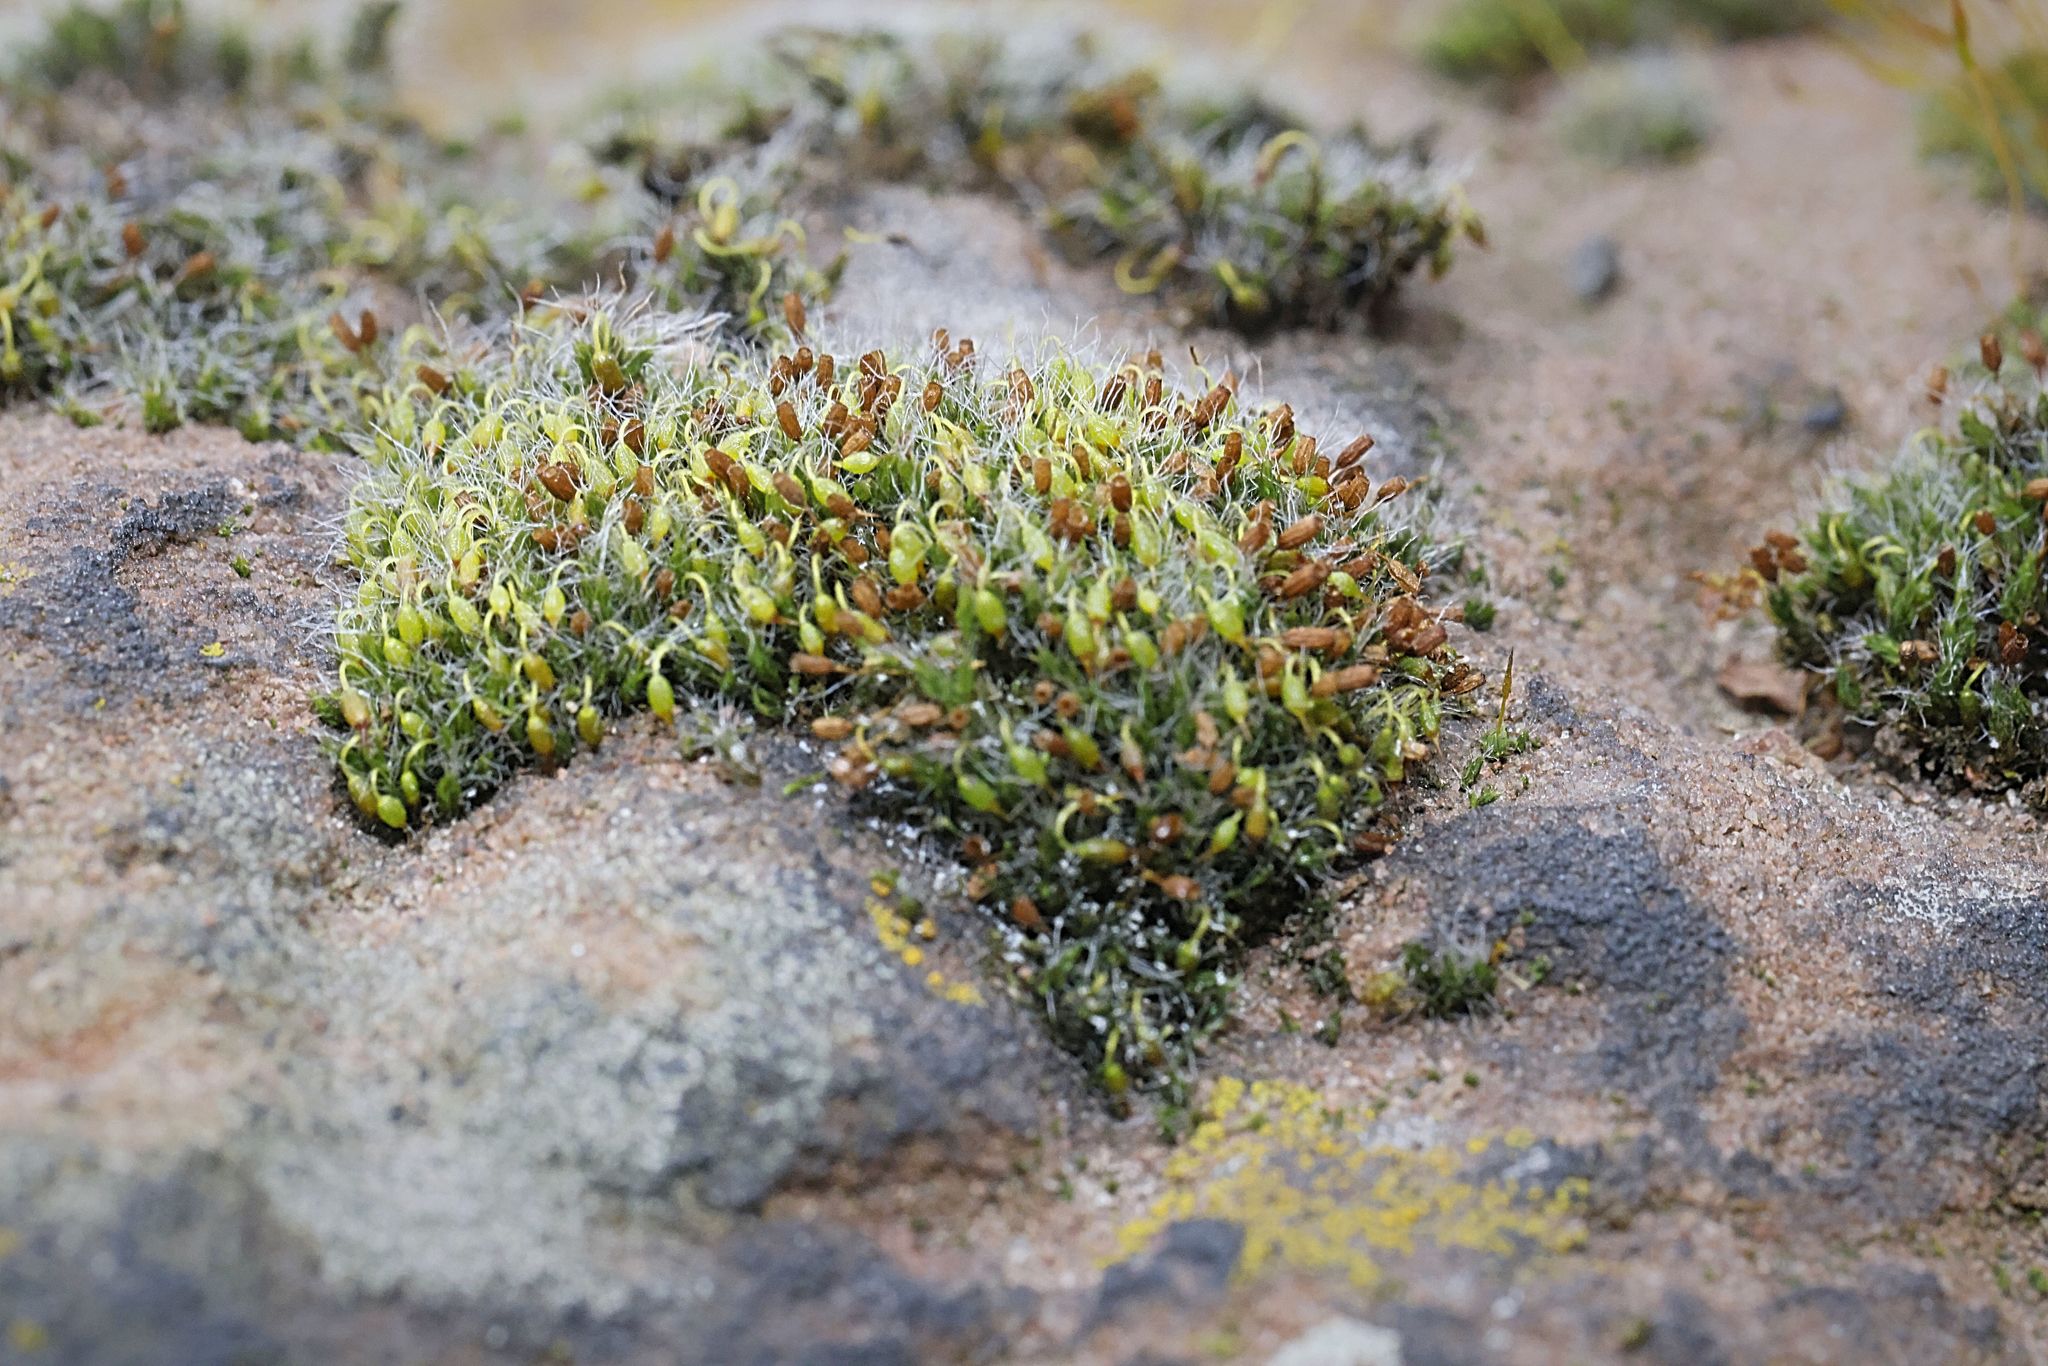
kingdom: Plantae
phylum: Bryophyta
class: Bryopsida
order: Grimmiales
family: Grimmiaceae
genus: Grimmia
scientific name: Grimmia pulvinata
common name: Grey-cushioned grimmia
